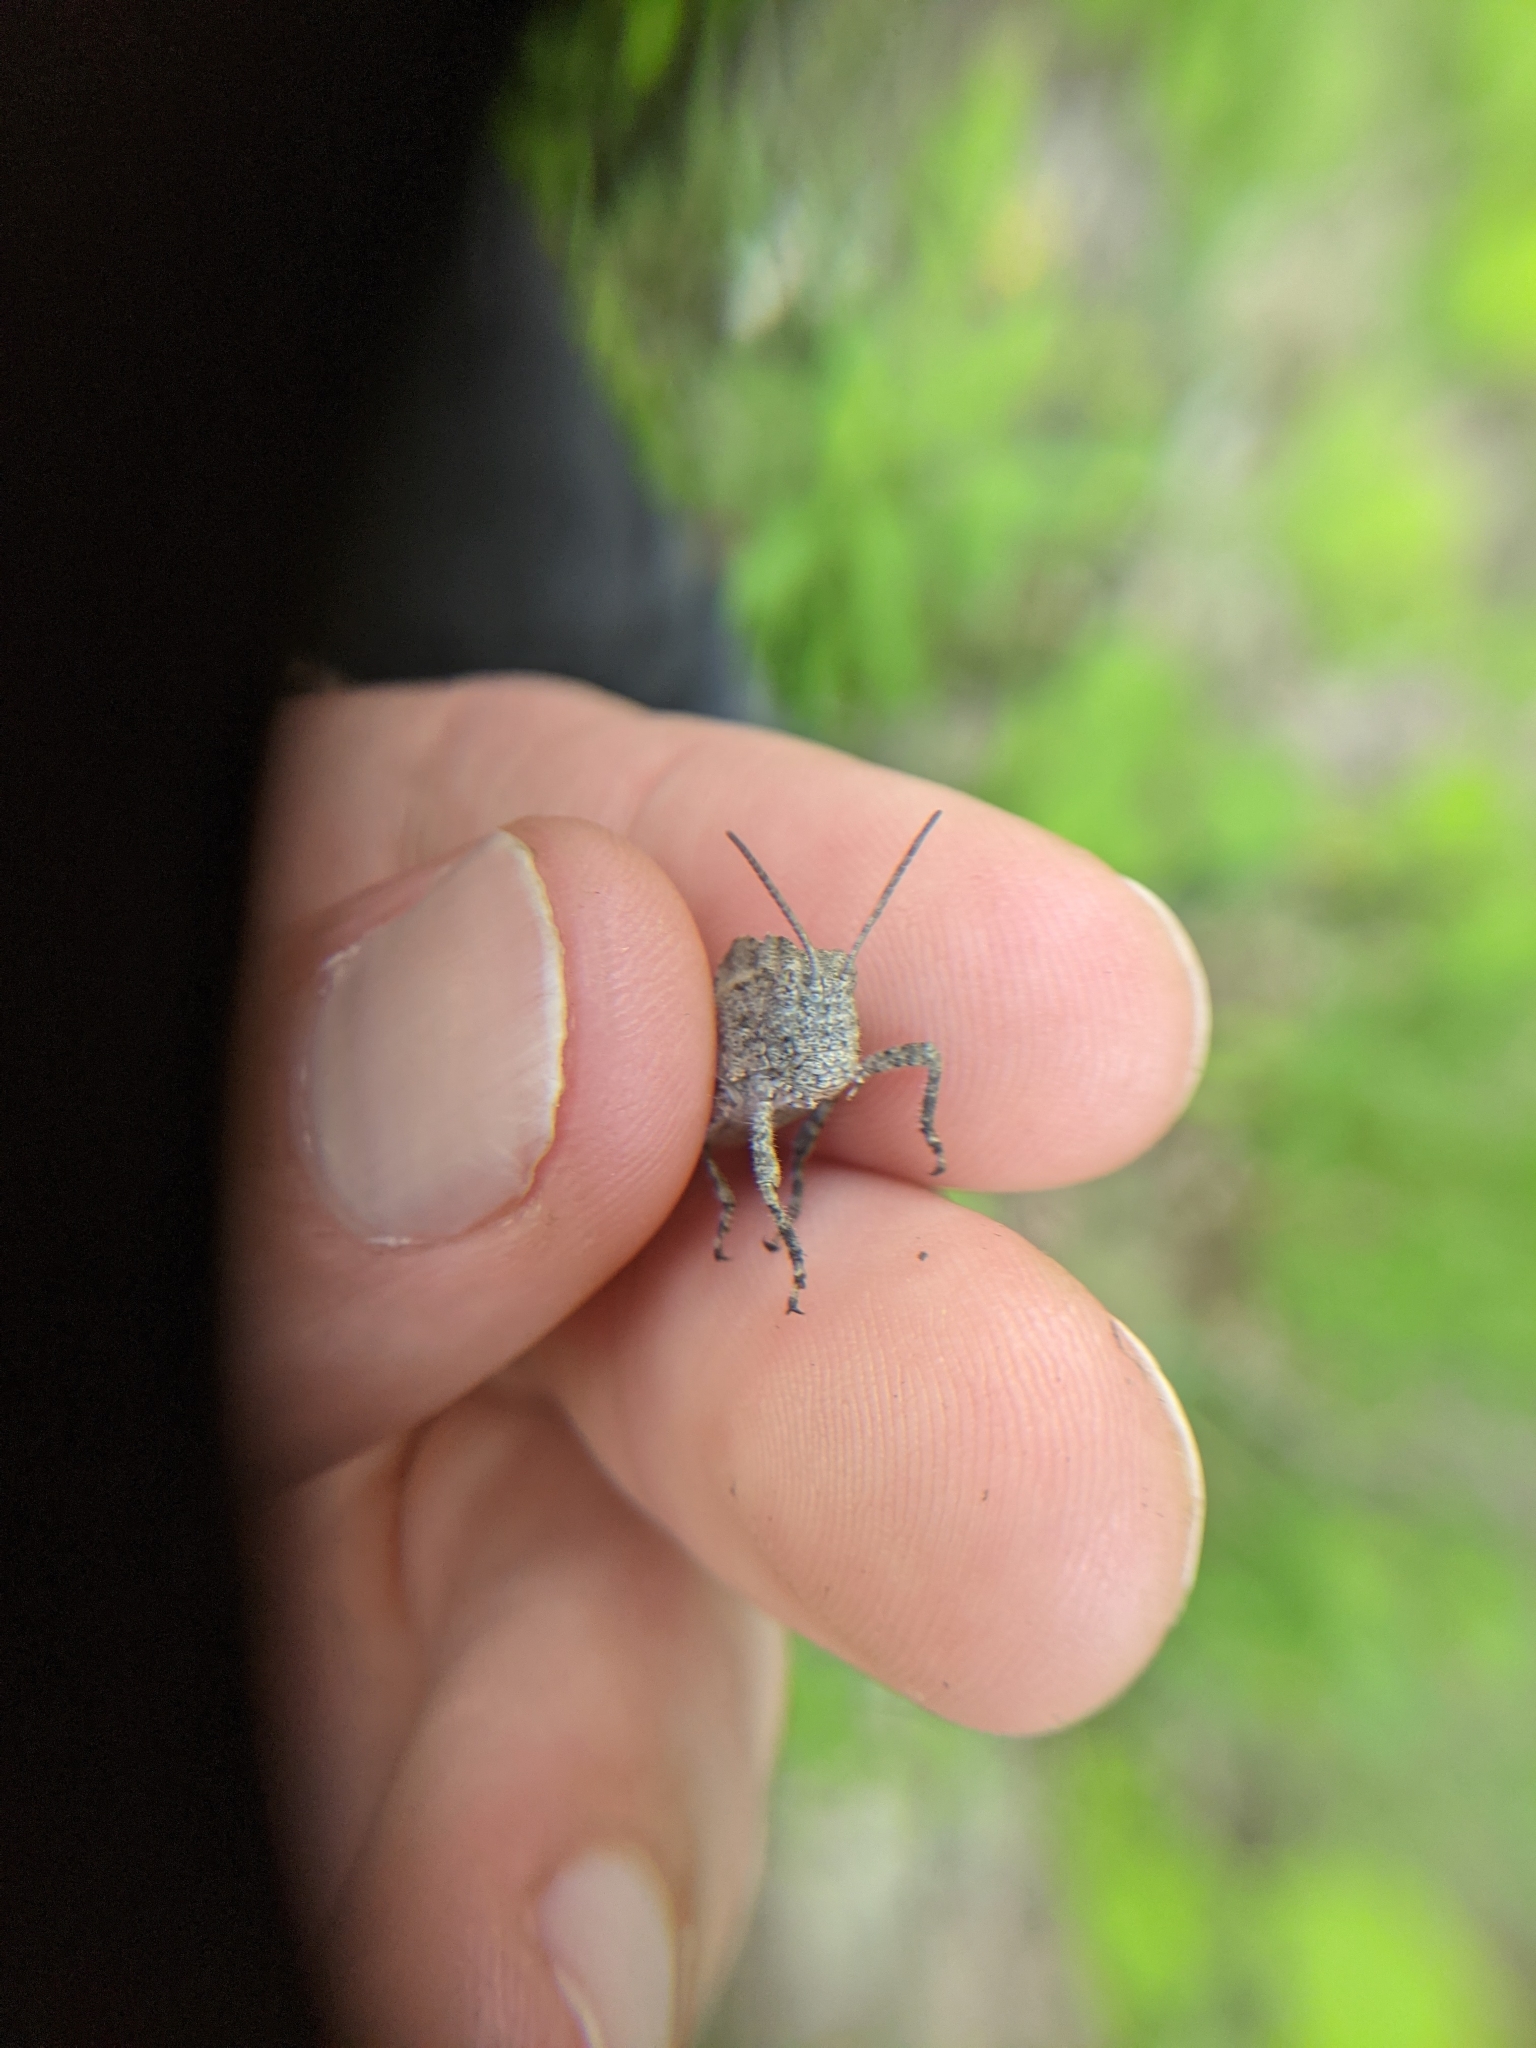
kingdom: Animalia
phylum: Arthropoda
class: Insecta
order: Orthoptera
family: Acrididae
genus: Dissosteira
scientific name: Dissosteira carolina
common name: Carolina grasshopper
